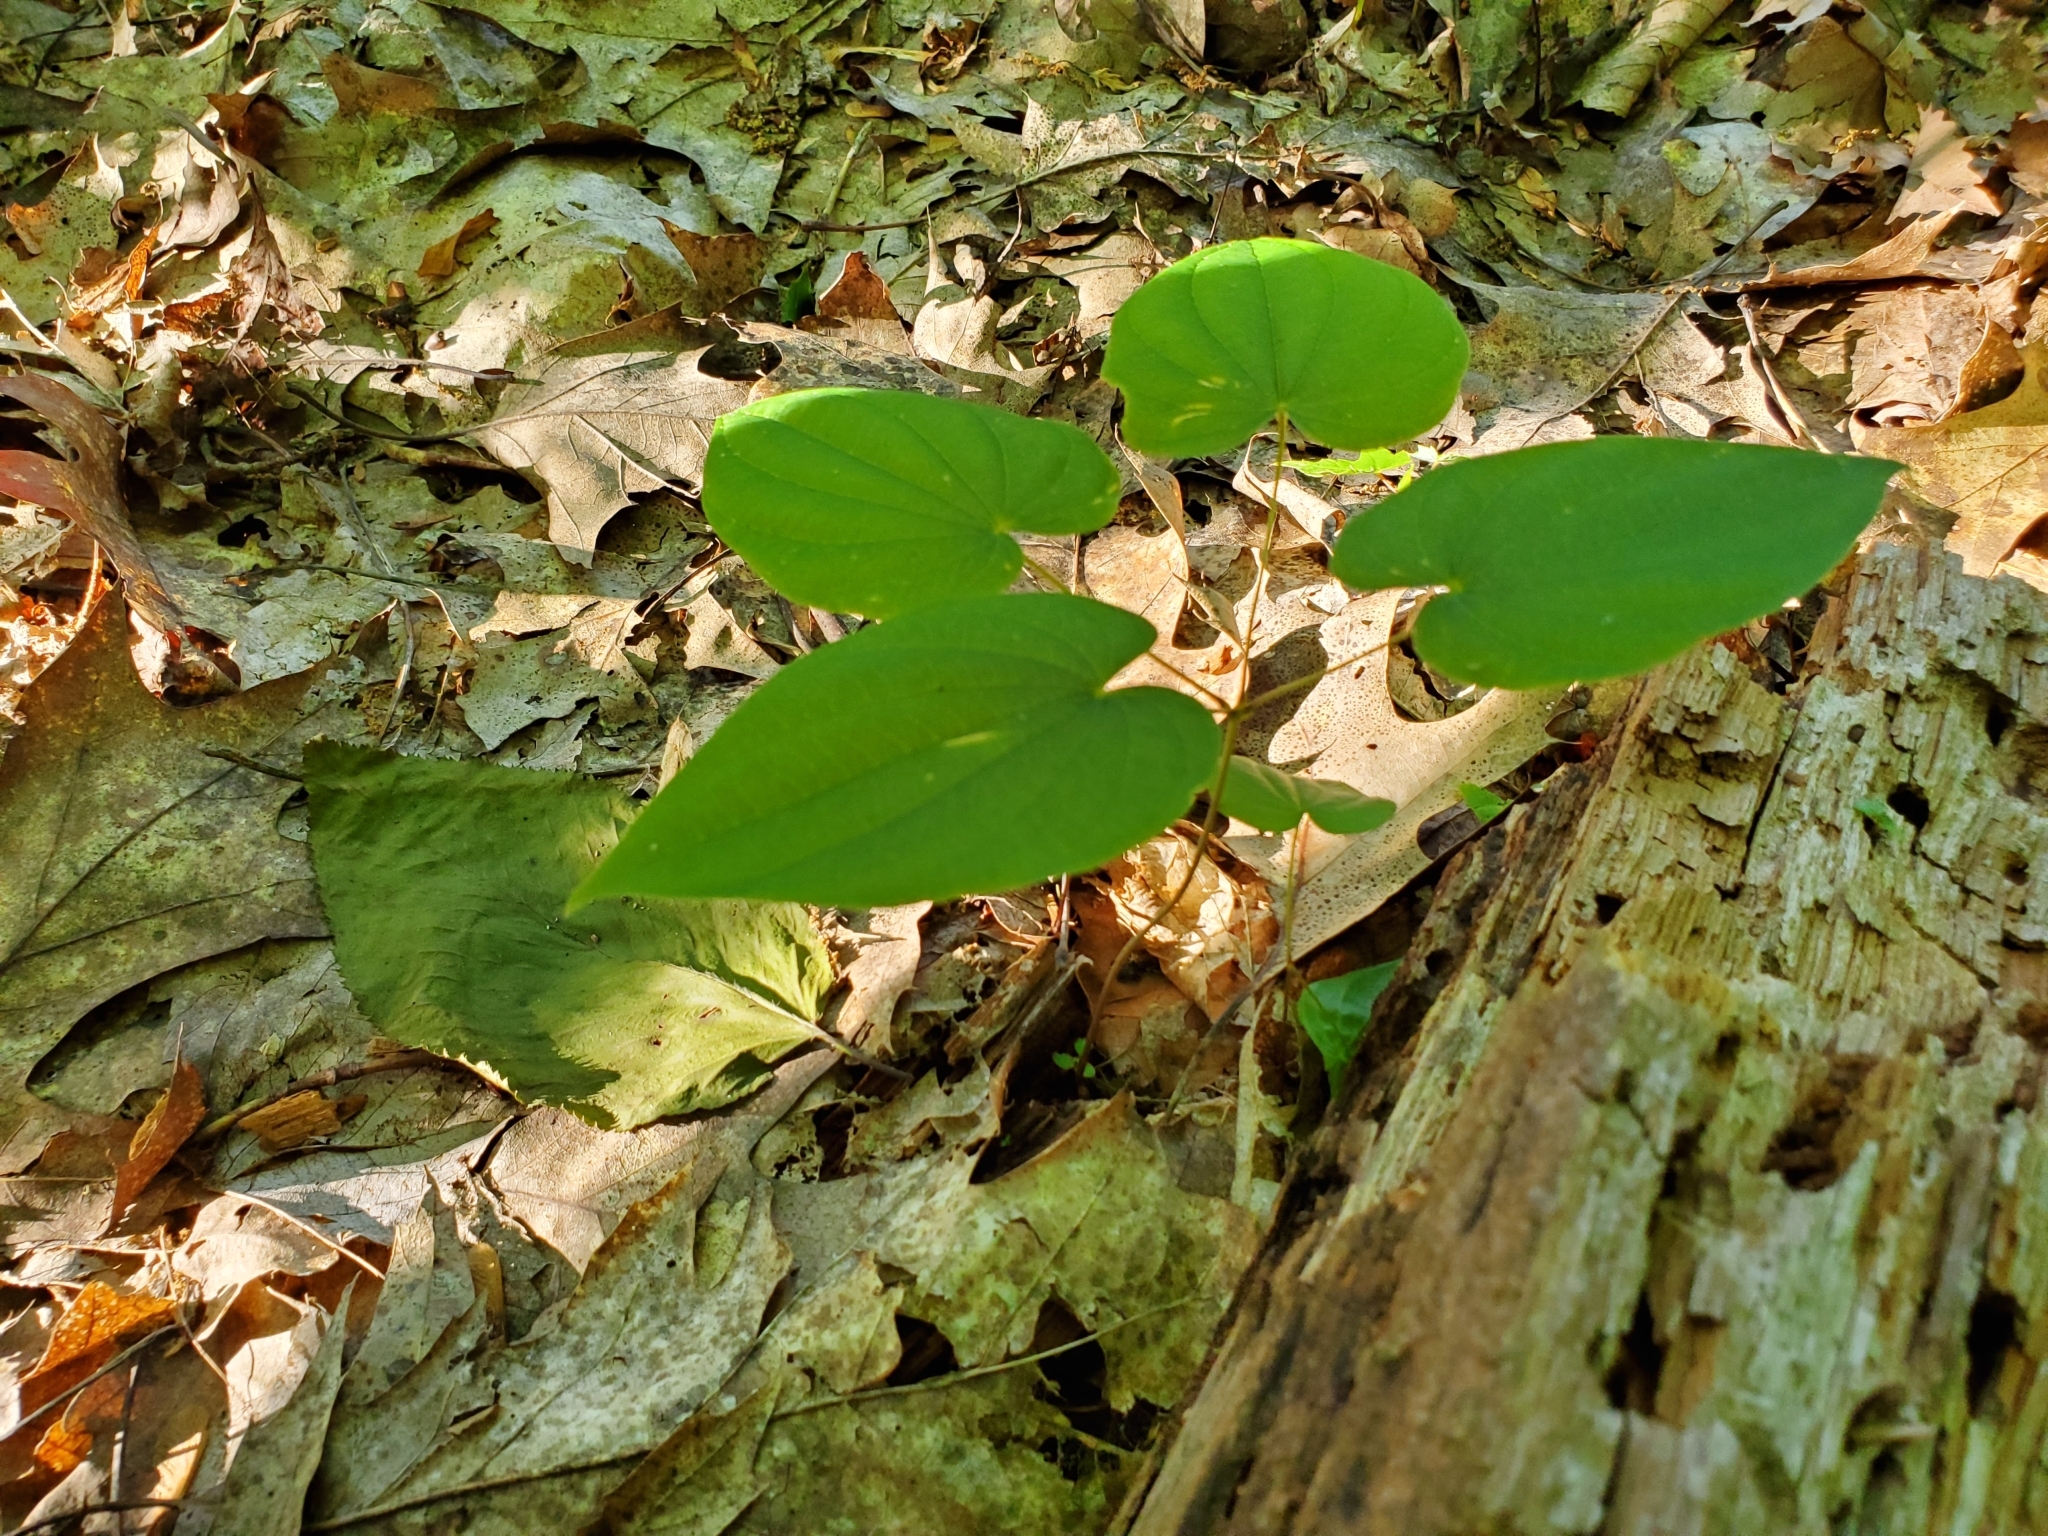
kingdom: Plantae
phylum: Tracheophyta
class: Liliopsida
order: Dioscoreales
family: Dioscoreaceae
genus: Dioscorea
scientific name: Dioscorea villosa
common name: Wild yam
